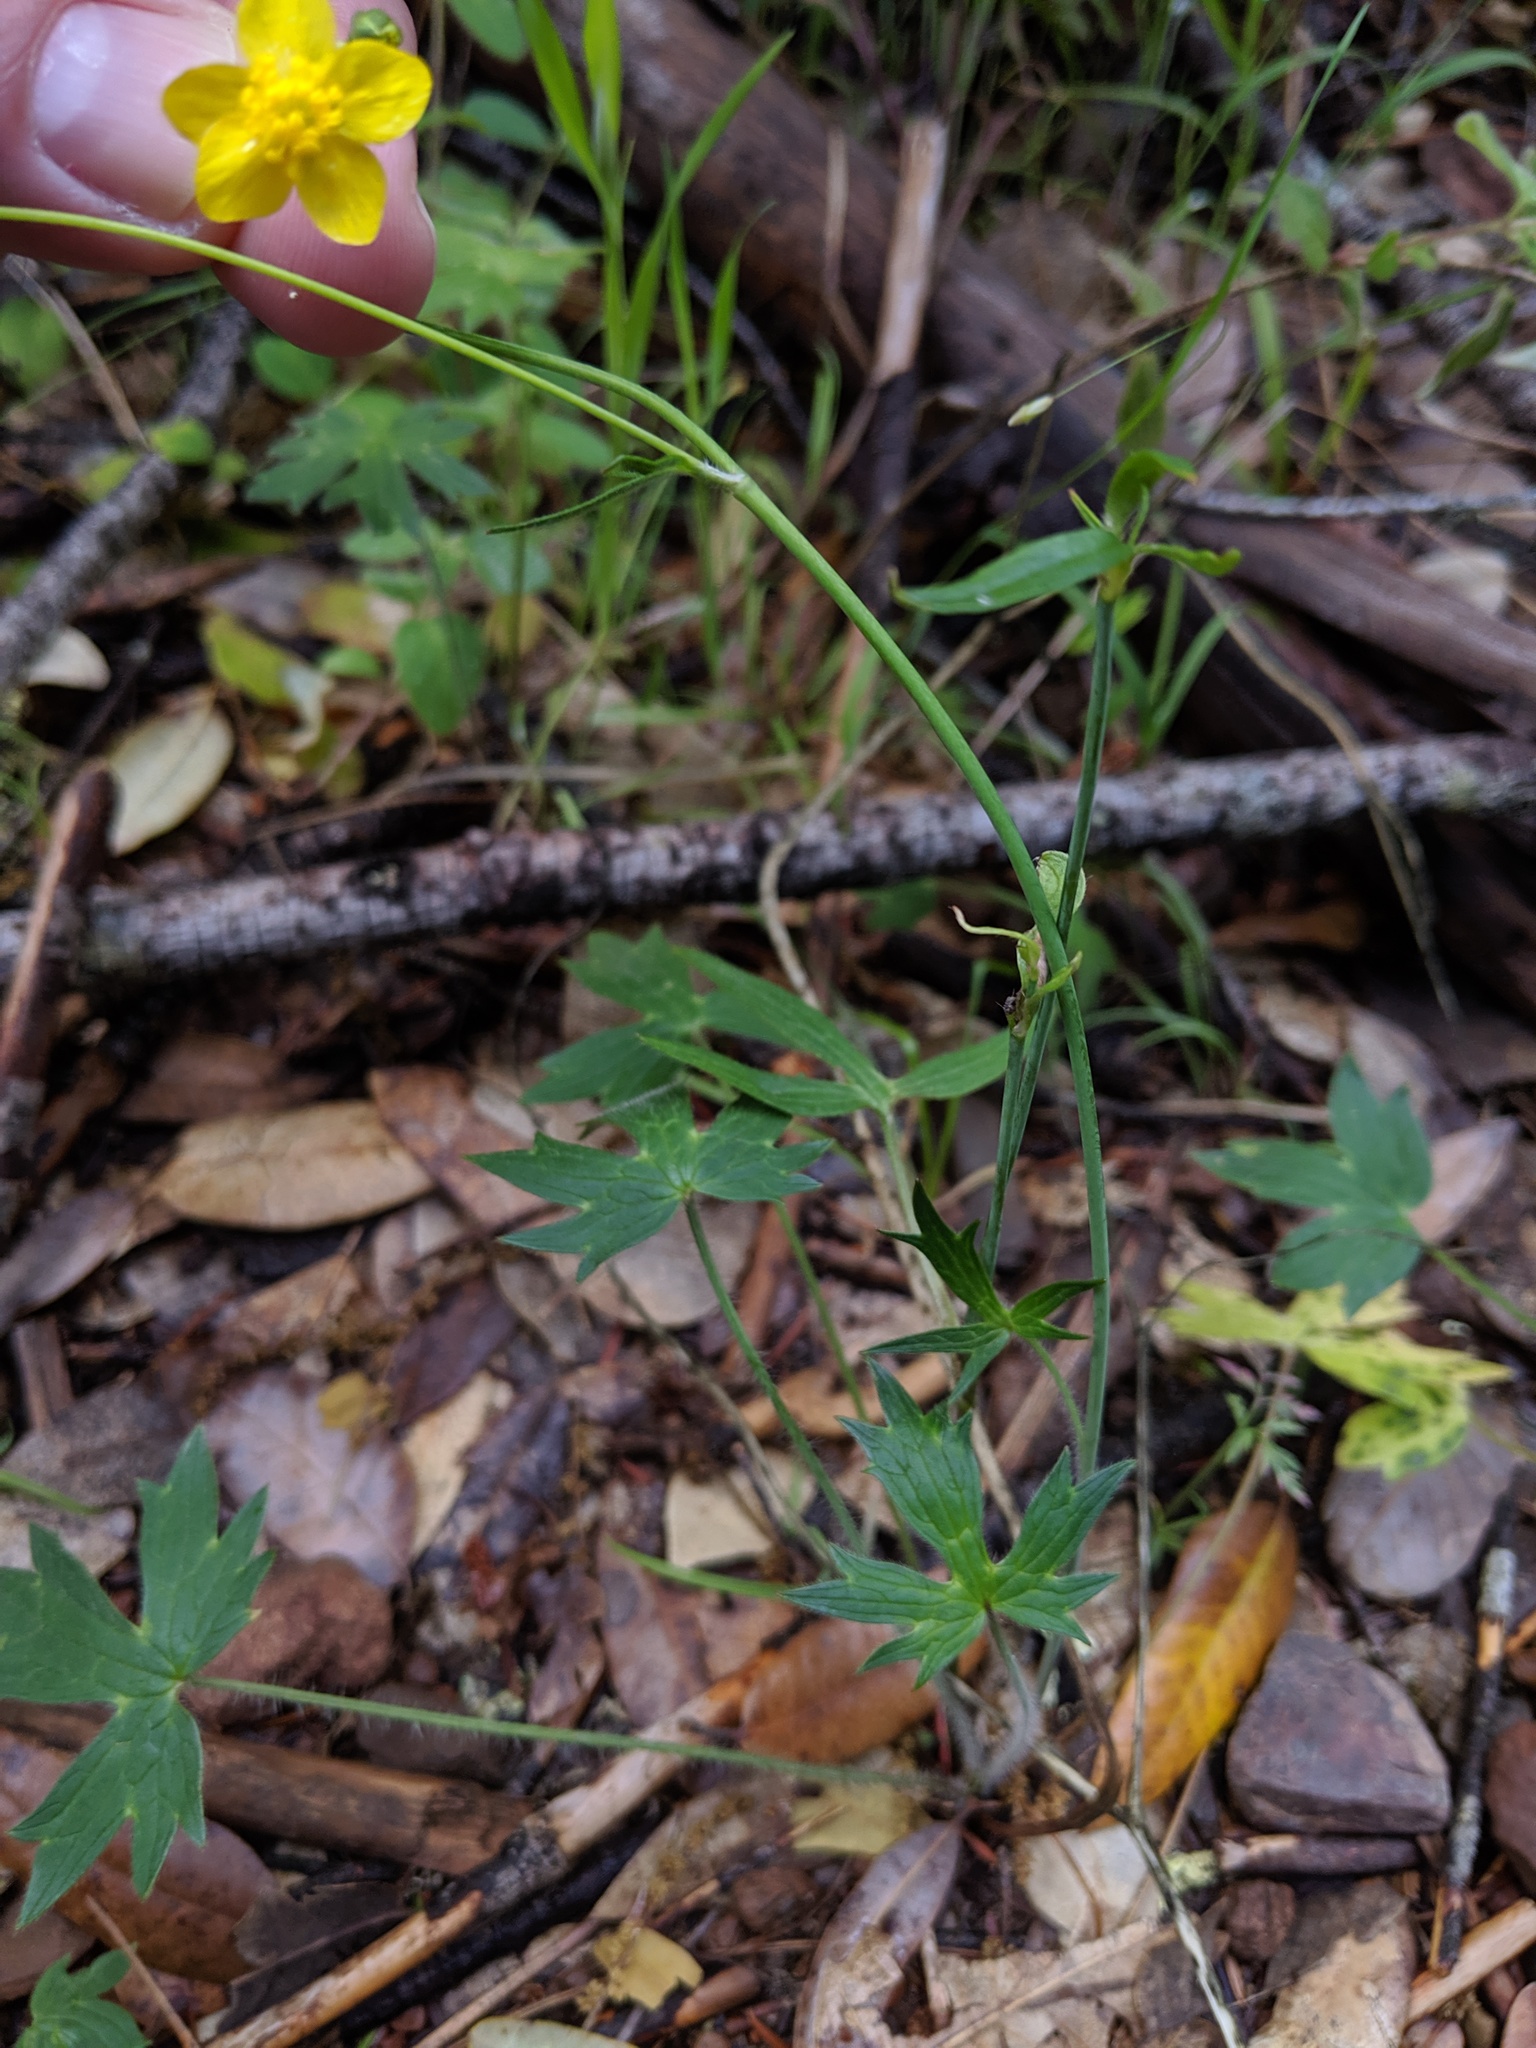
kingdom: Plantae
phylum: Tracheophyta
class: Magnoliopsida
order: Ranunculales
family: Ranunculaceae
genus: Ranunculus
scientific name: Ranunculus occidentalis
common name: Western buttercup
